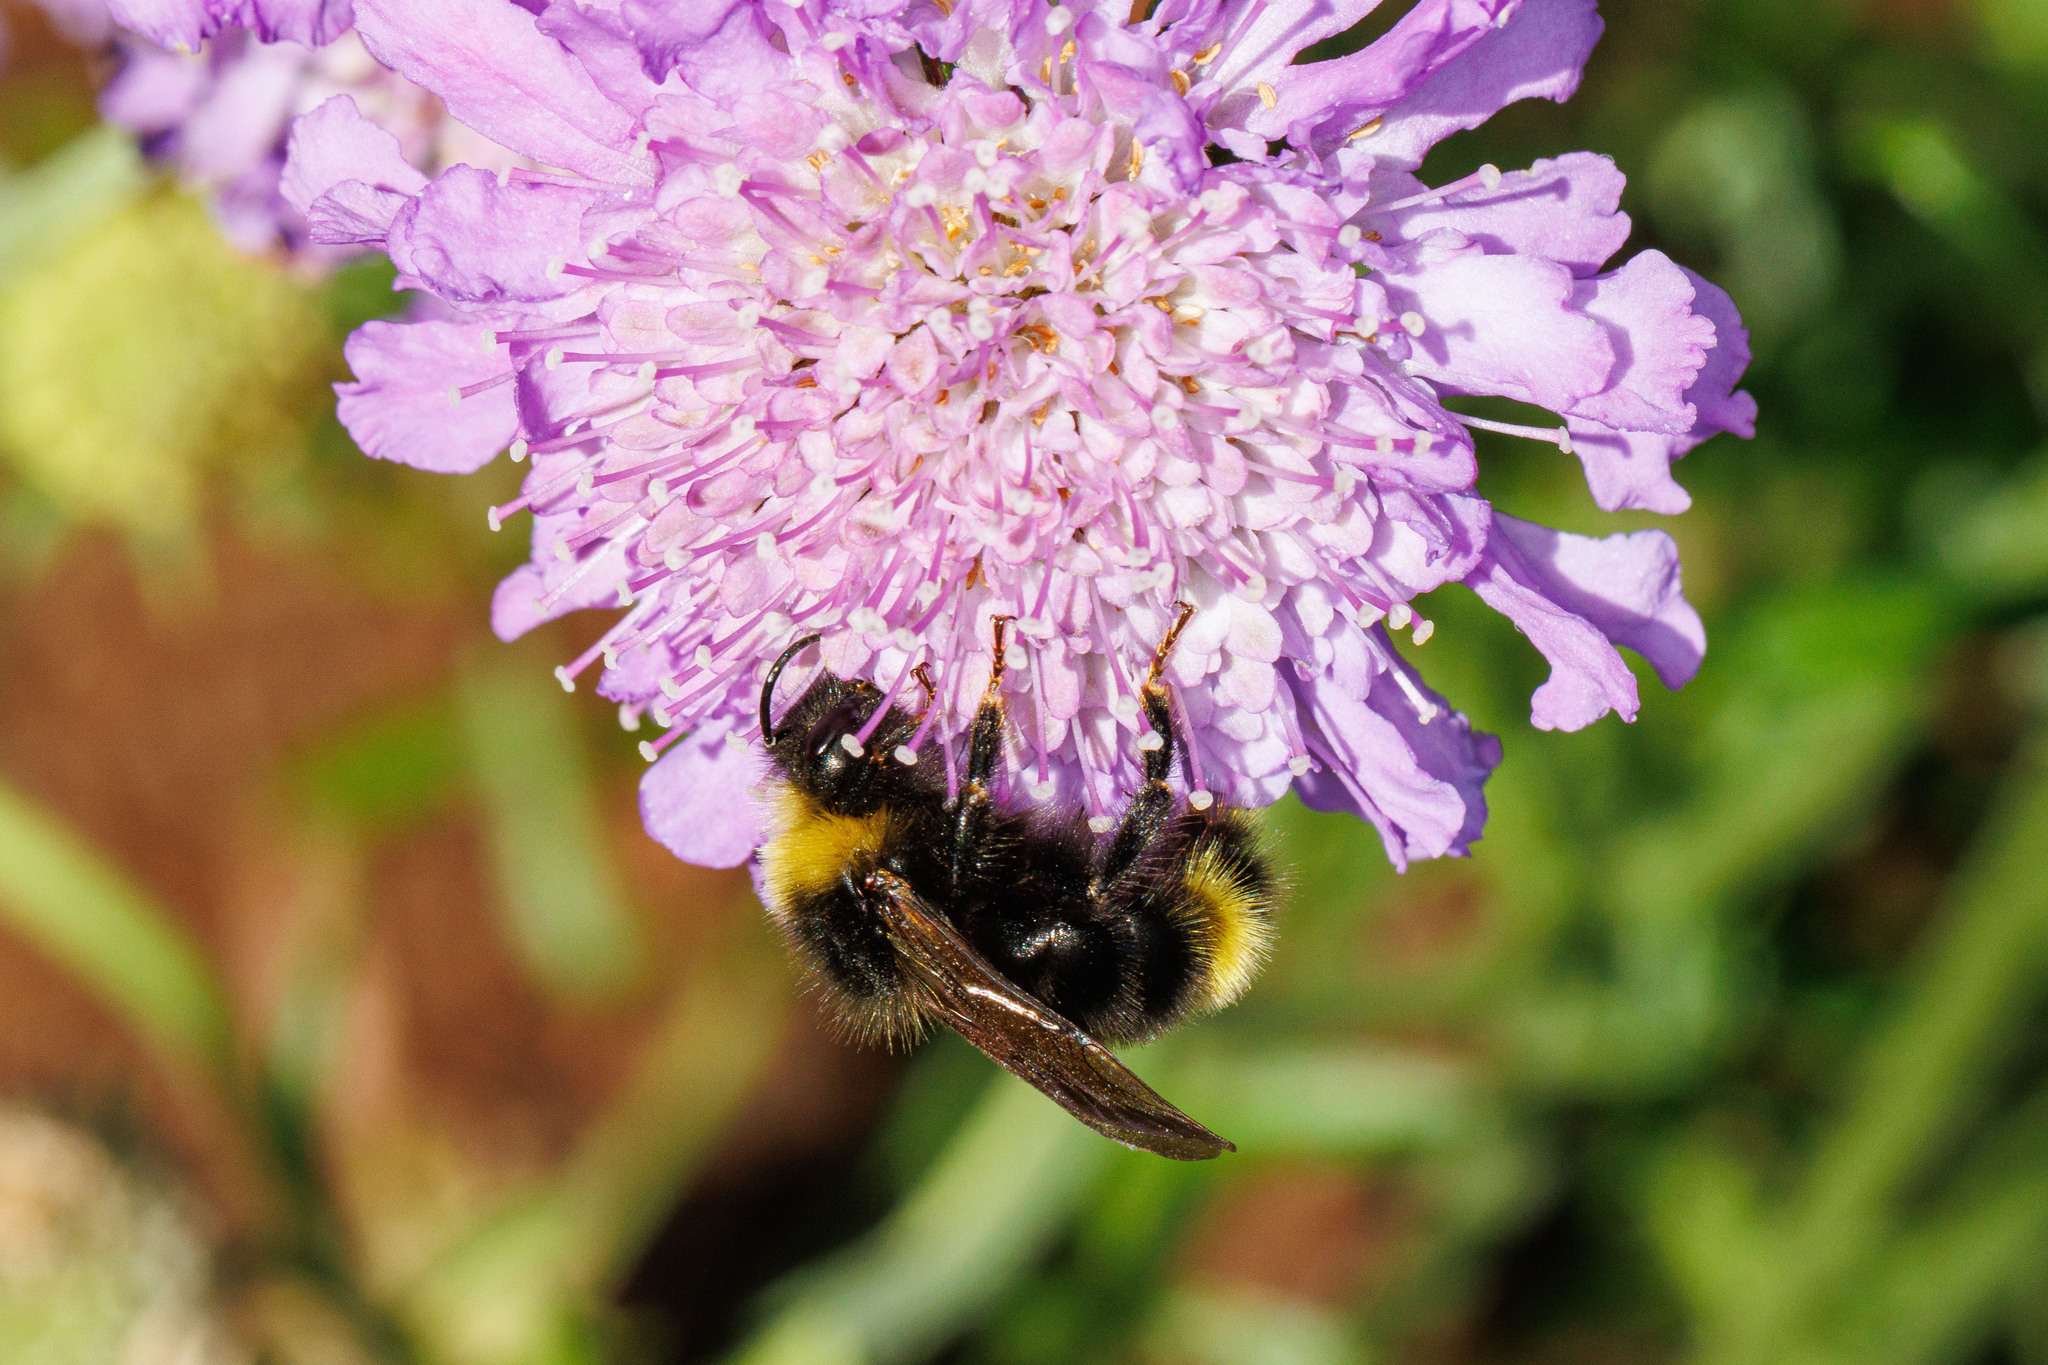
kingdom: Animalia
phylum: Arthropoda
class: Insecta
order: Hymenoptera
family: Apidae
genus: Bombus
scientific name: Bombus flavidus
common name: Fernald cuckoo bumble bee
